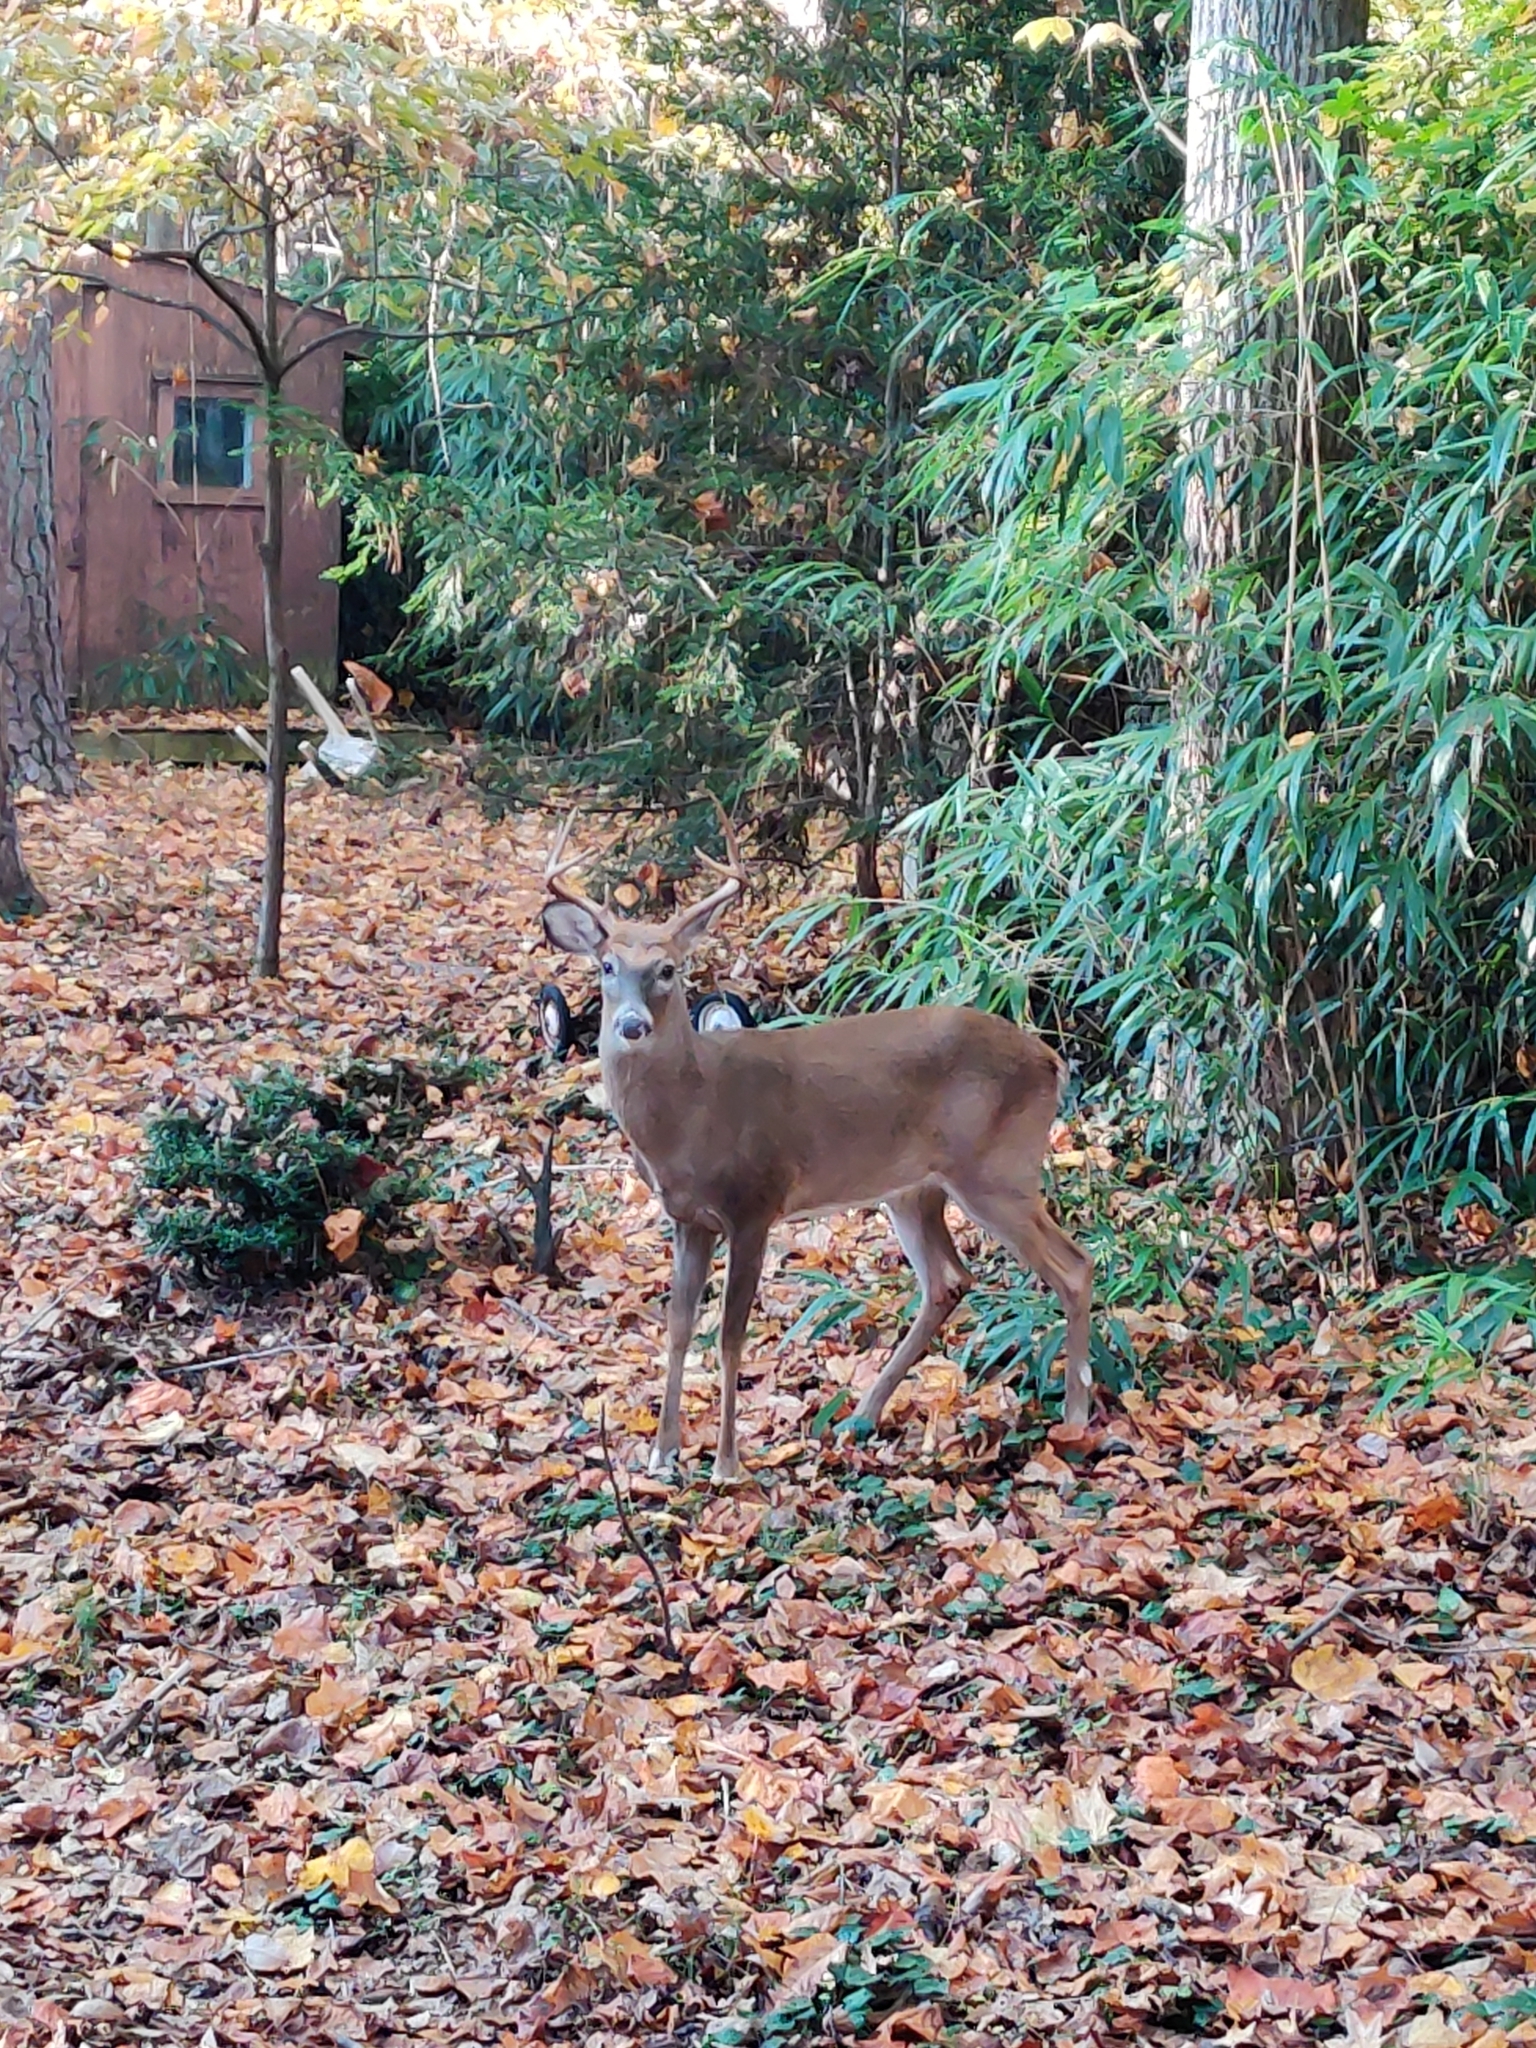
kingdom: Animalia
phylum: Chordata
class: Mammalia
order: Artiodactyla
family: Cervidae
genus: Odocoileus
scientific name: Odocoileus virginianus
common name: White-tailed deer
